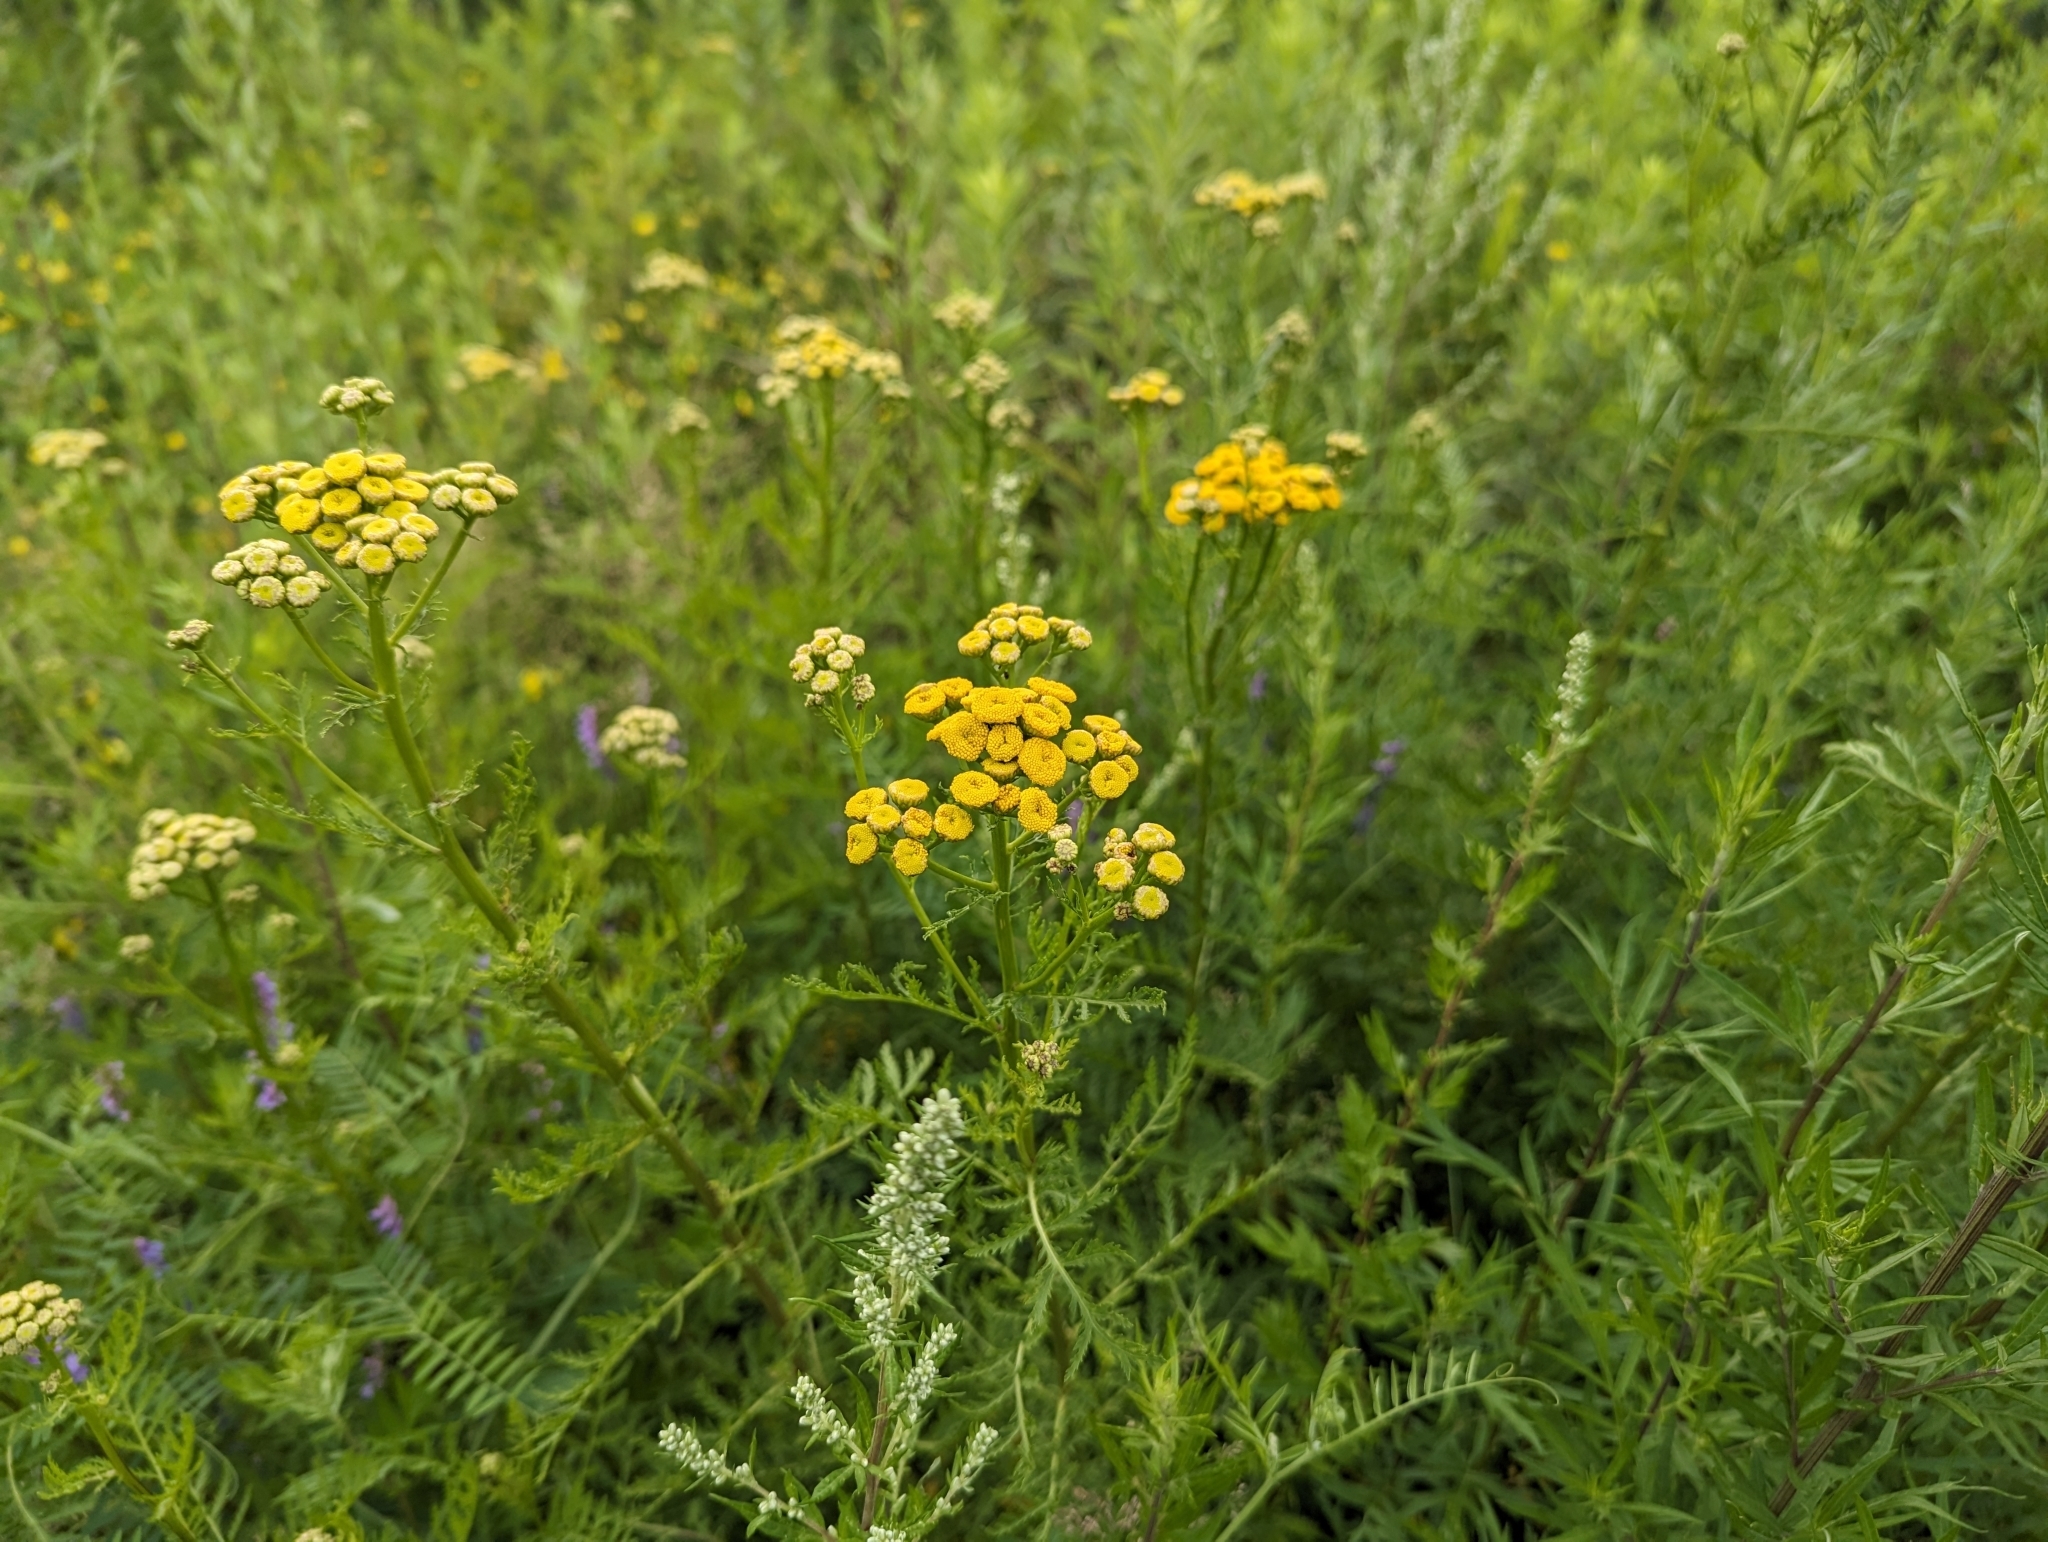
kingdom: Plantae
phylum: Tracheophyta
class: Magnoliopsida
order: Asterales
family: Asteraceae
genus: Tanacetum
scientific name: Tanacetum vulgare
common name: Common tansy
